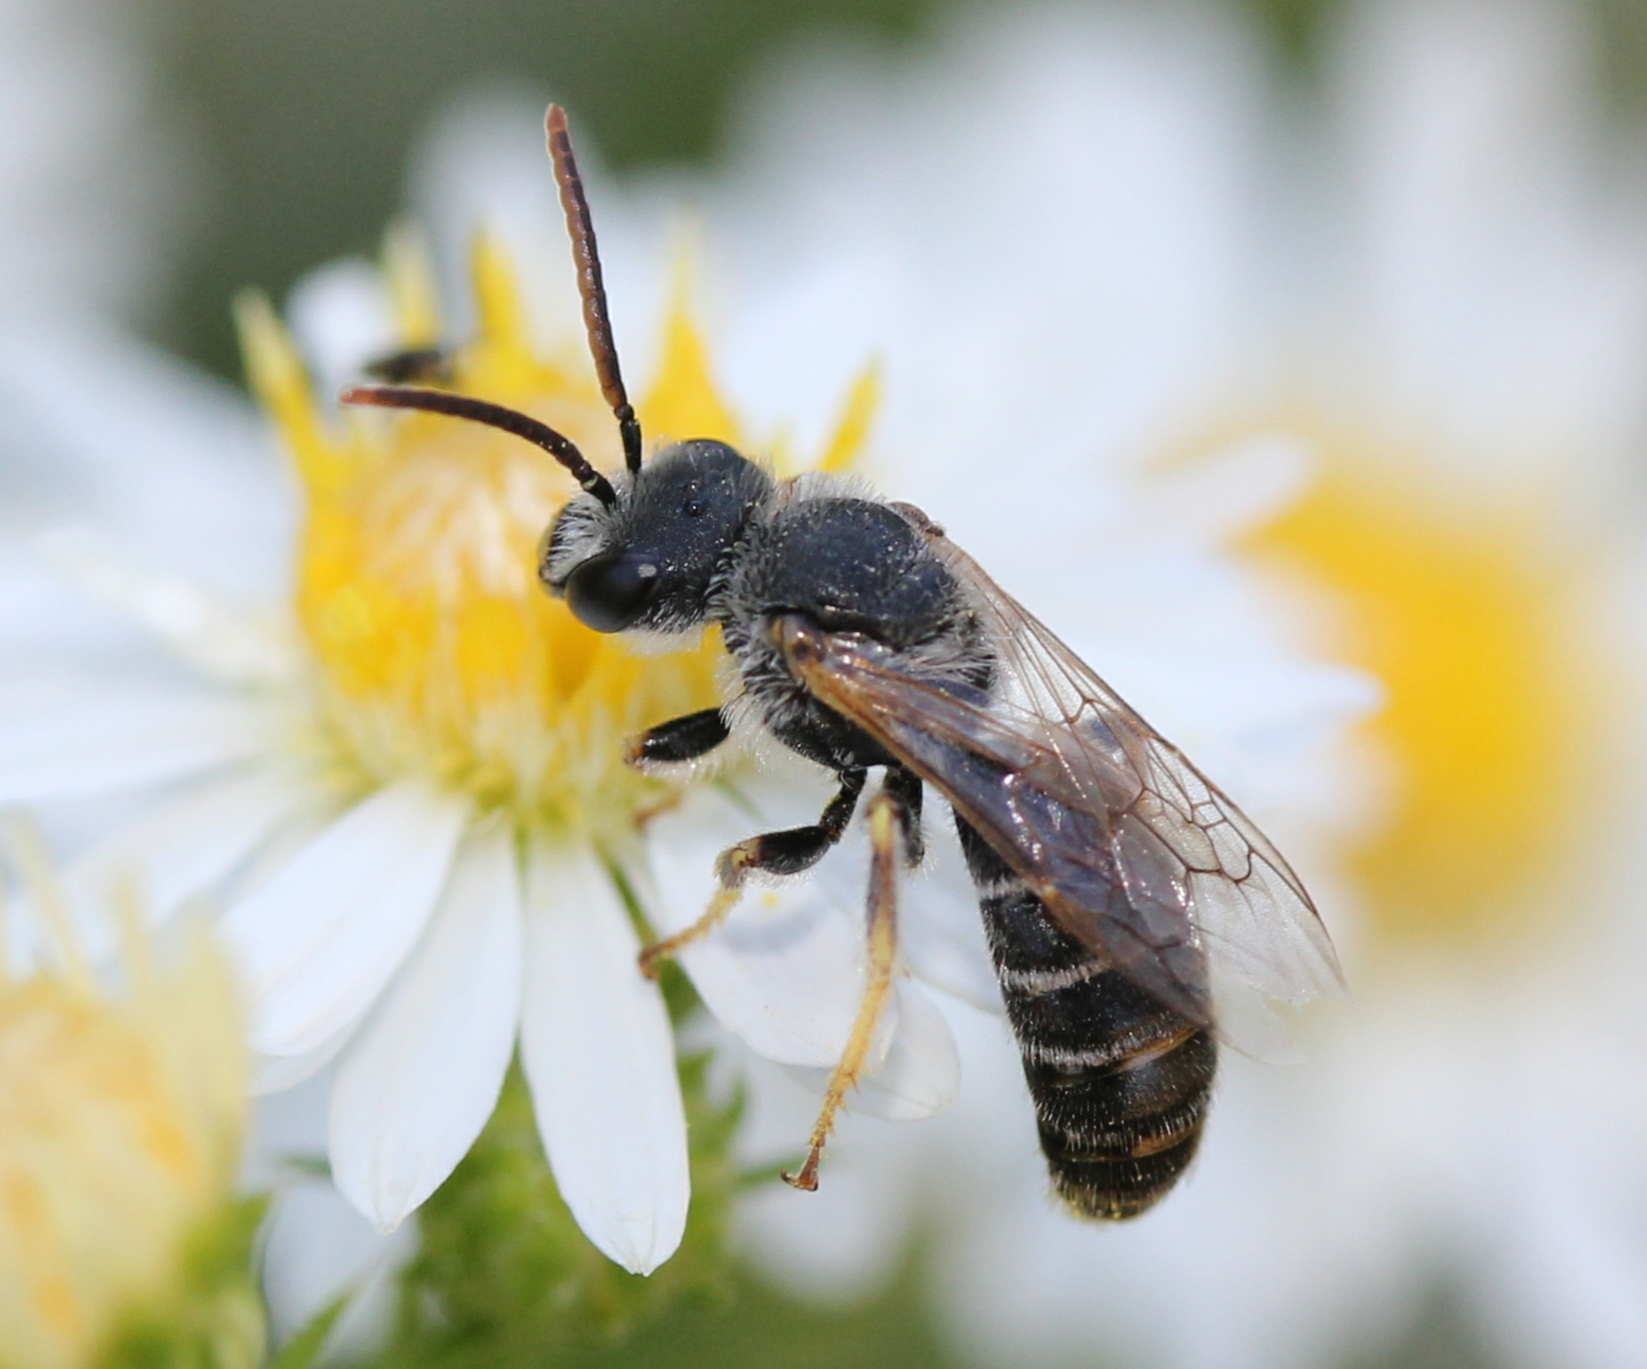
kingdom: Animalia
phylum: Arthropoda
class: Insecta
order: Hymenoptera
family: Halictidae
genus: Halictus
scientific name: Halictus ligatus
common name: Ligated furrow bee
